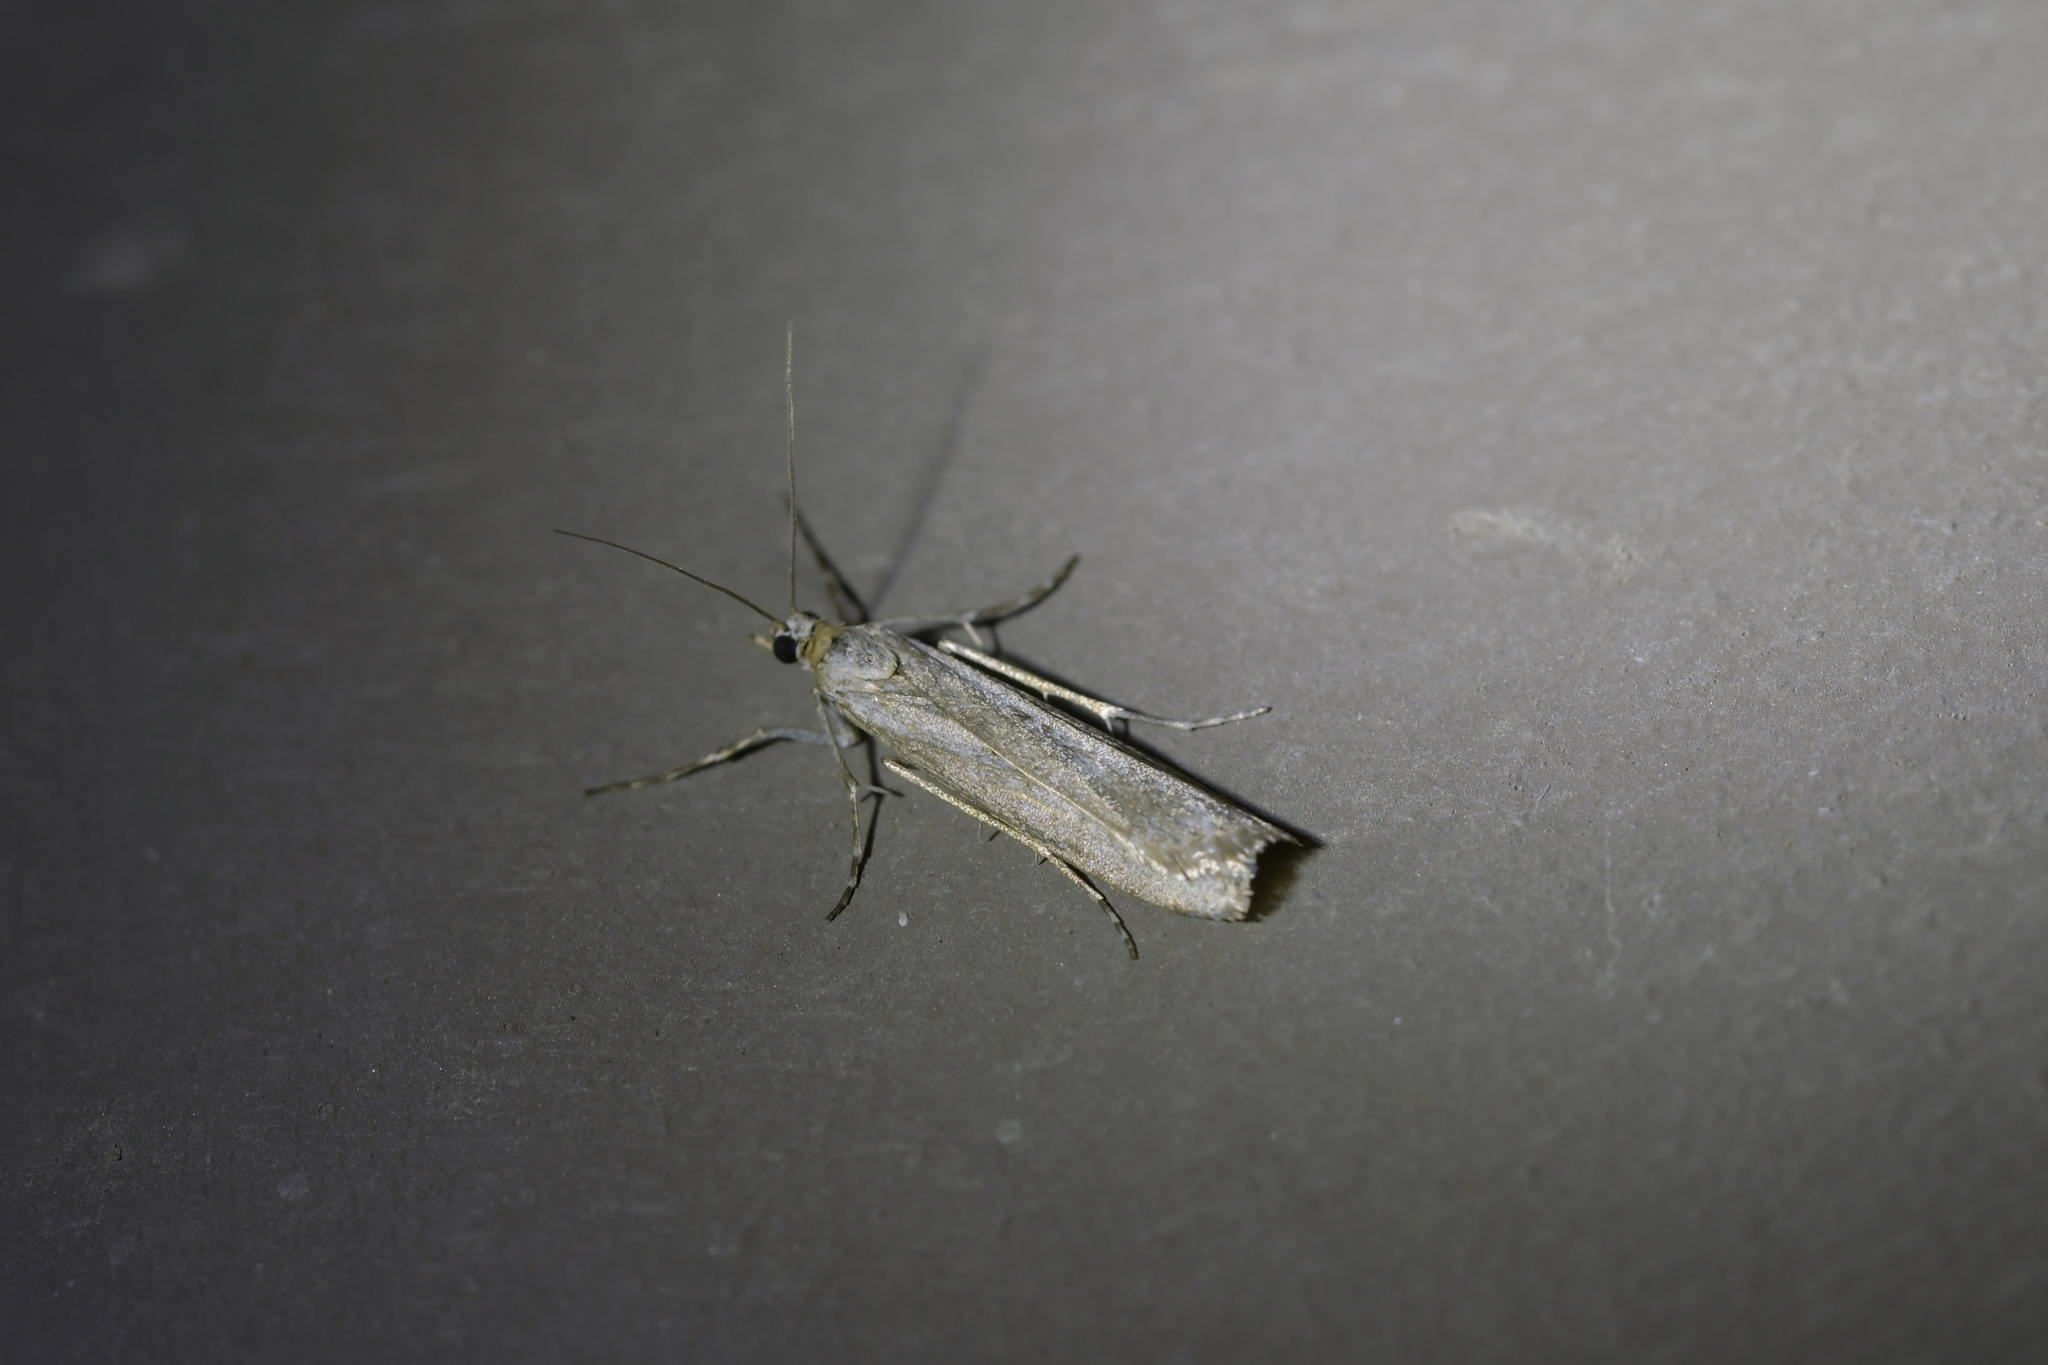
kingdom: Animalia
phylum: Arthropoda
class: Insecta
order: Lepidoptera
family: Crambidae
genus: Eudonia
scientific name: Eudonia leptalea
